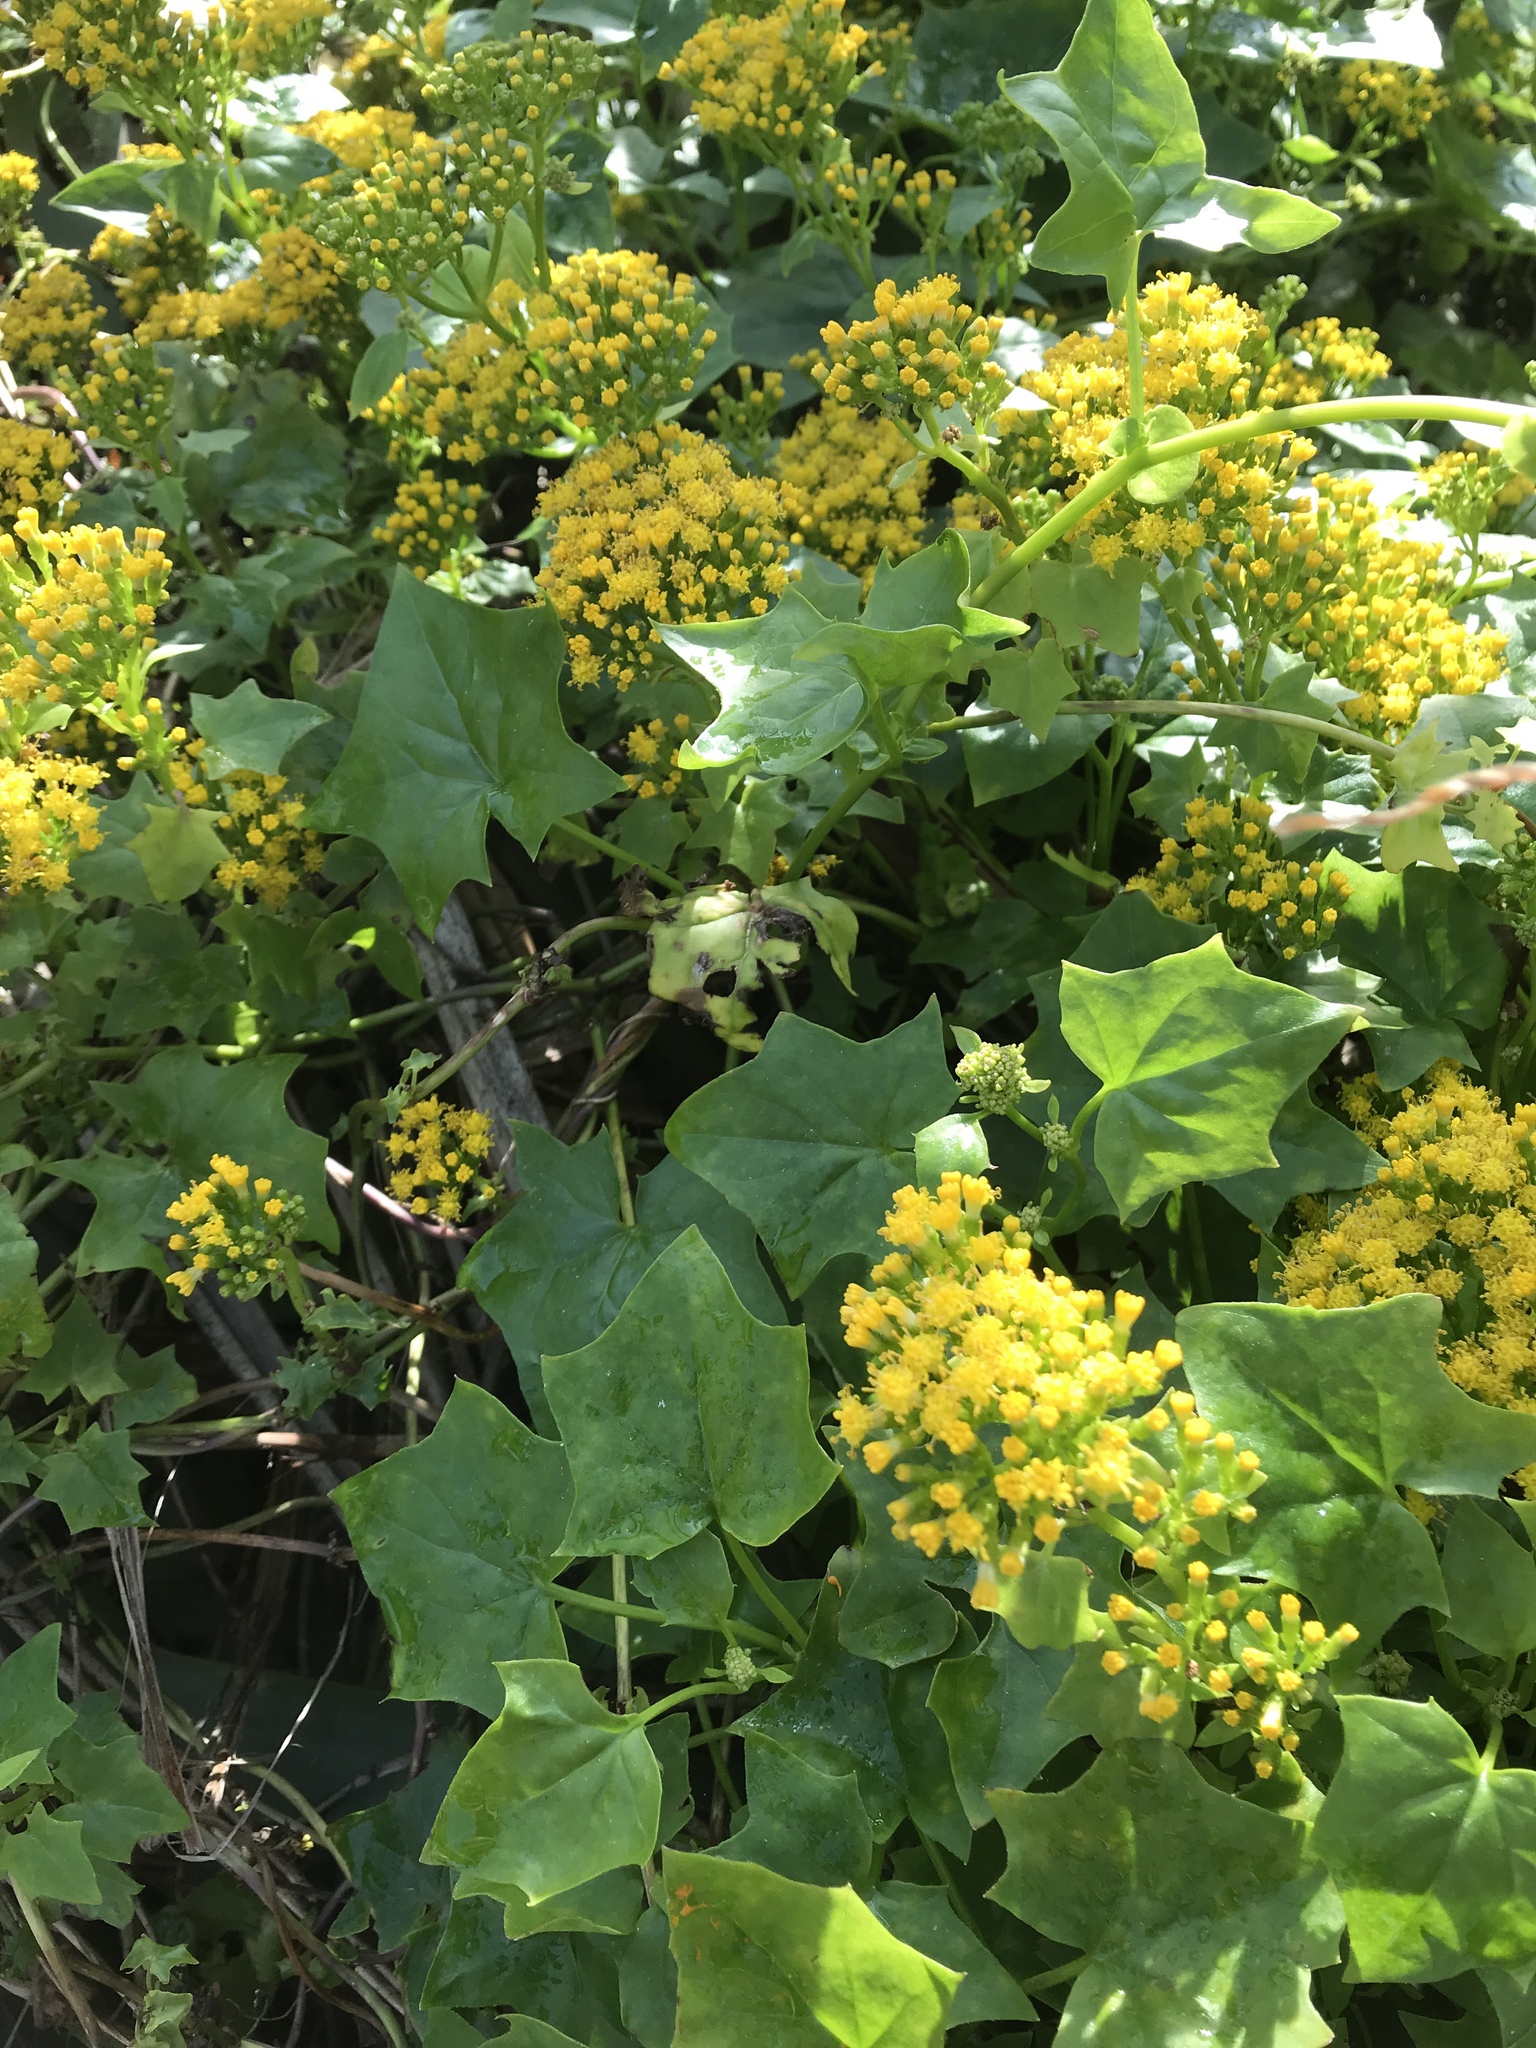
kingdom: Plantae
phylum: Tracheophyta
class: Magnoliopsida
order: Asterales
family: Asteraceae
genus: Delairea
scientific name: Delairea odorata
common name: Cape-ivy
